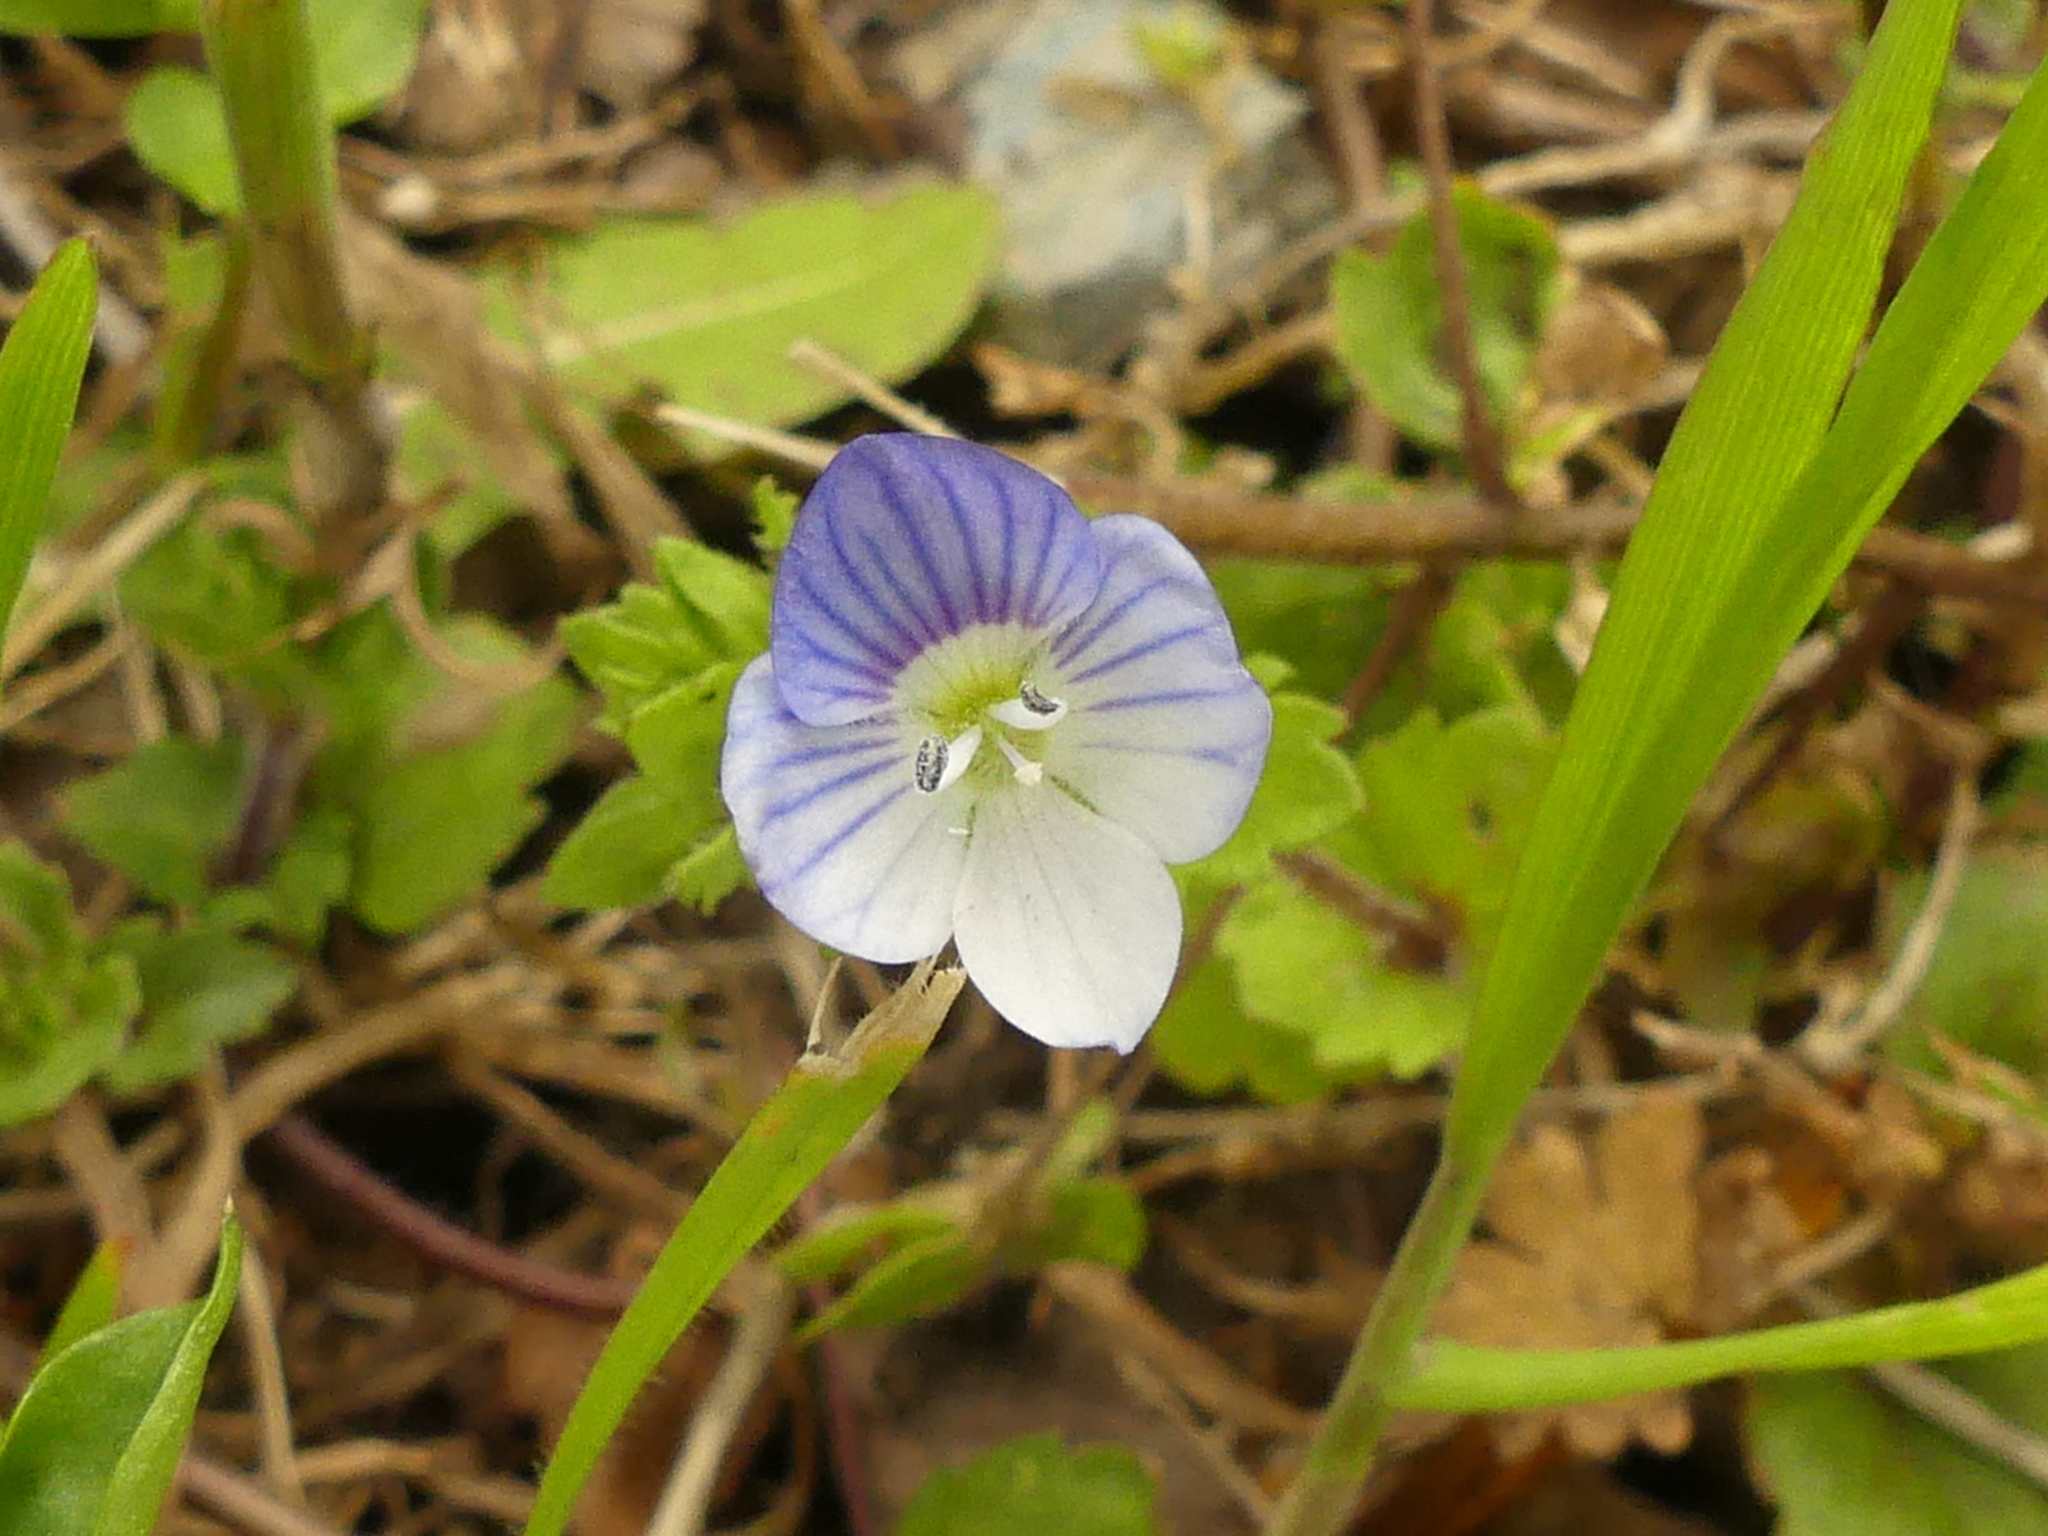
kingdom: Plantae
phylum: Tracheophyta
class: Magnoliopsida
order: Lamiales
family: Plantaginaceae
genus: Veronica
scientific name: Veronica persica
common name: Common field-speedwell
